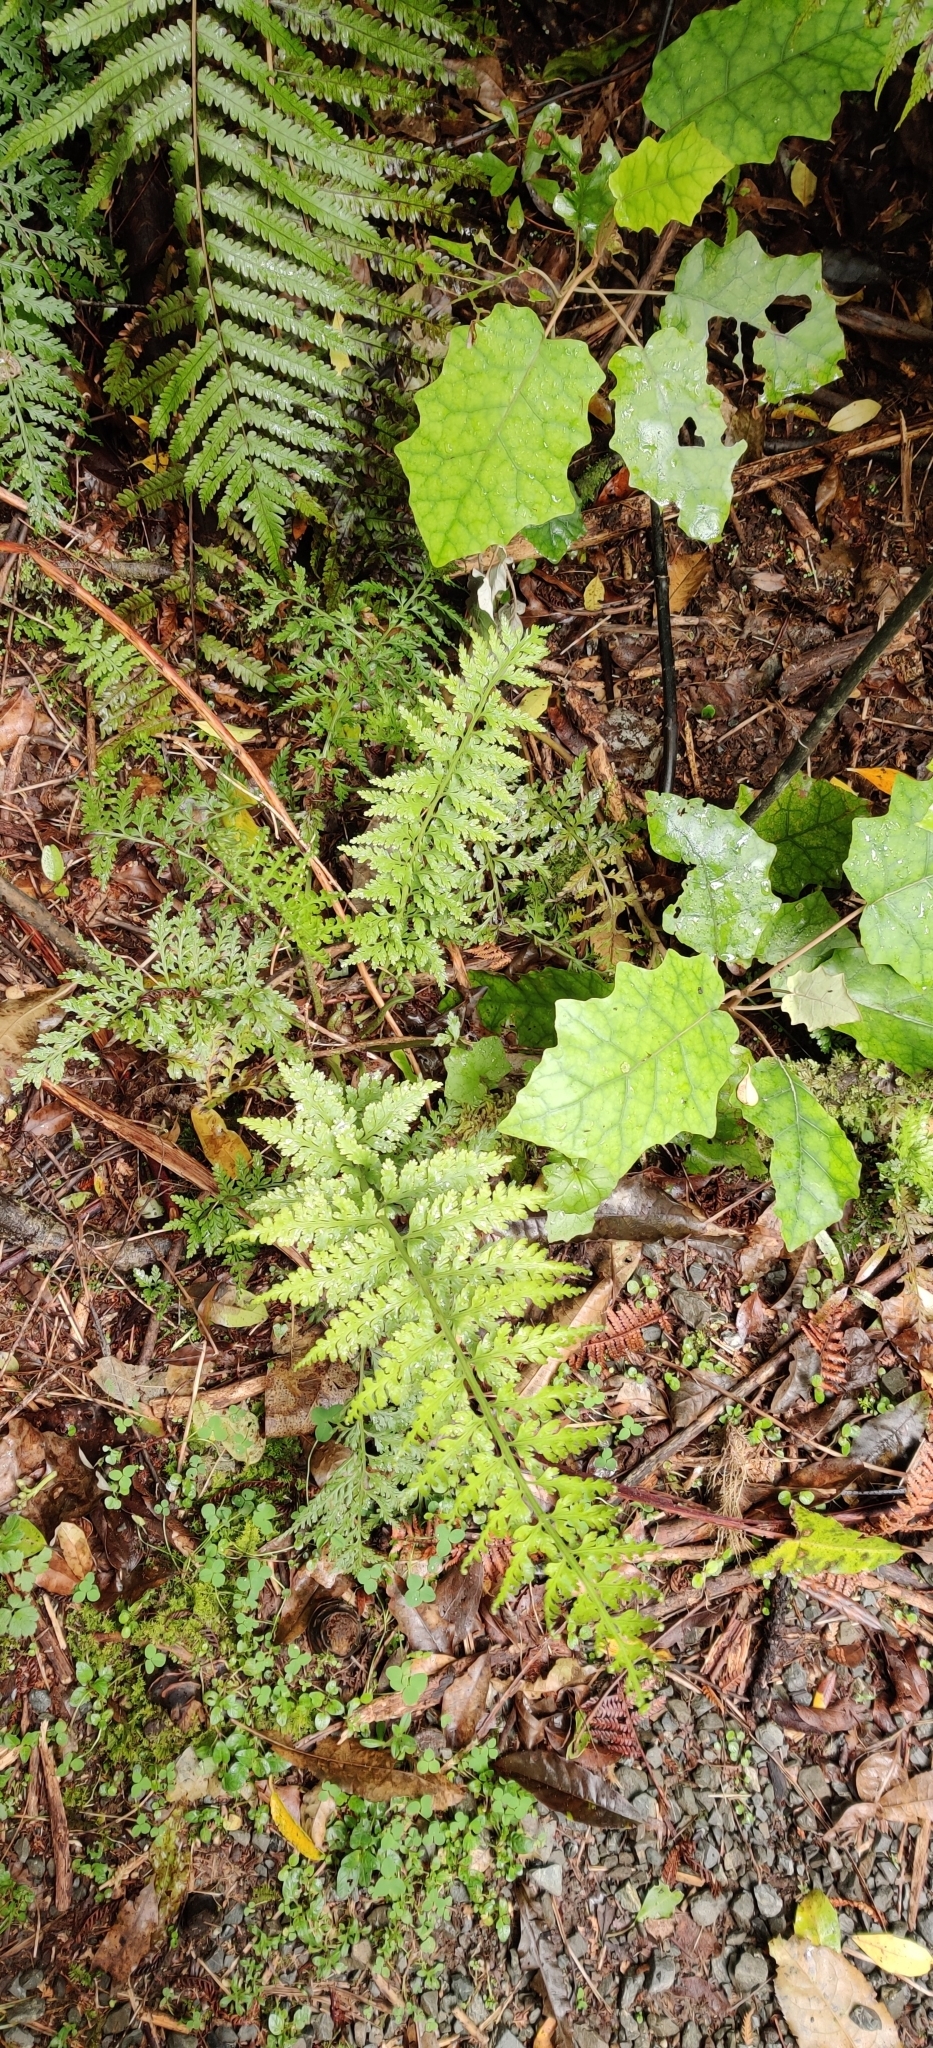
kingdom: Plantae
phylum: Tracheophyta
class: Polypodiopsida
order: Polypodiales
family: Aspleniaceae
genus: Asplenium
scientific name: Asplenium bulbiferum
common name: Mother fern
